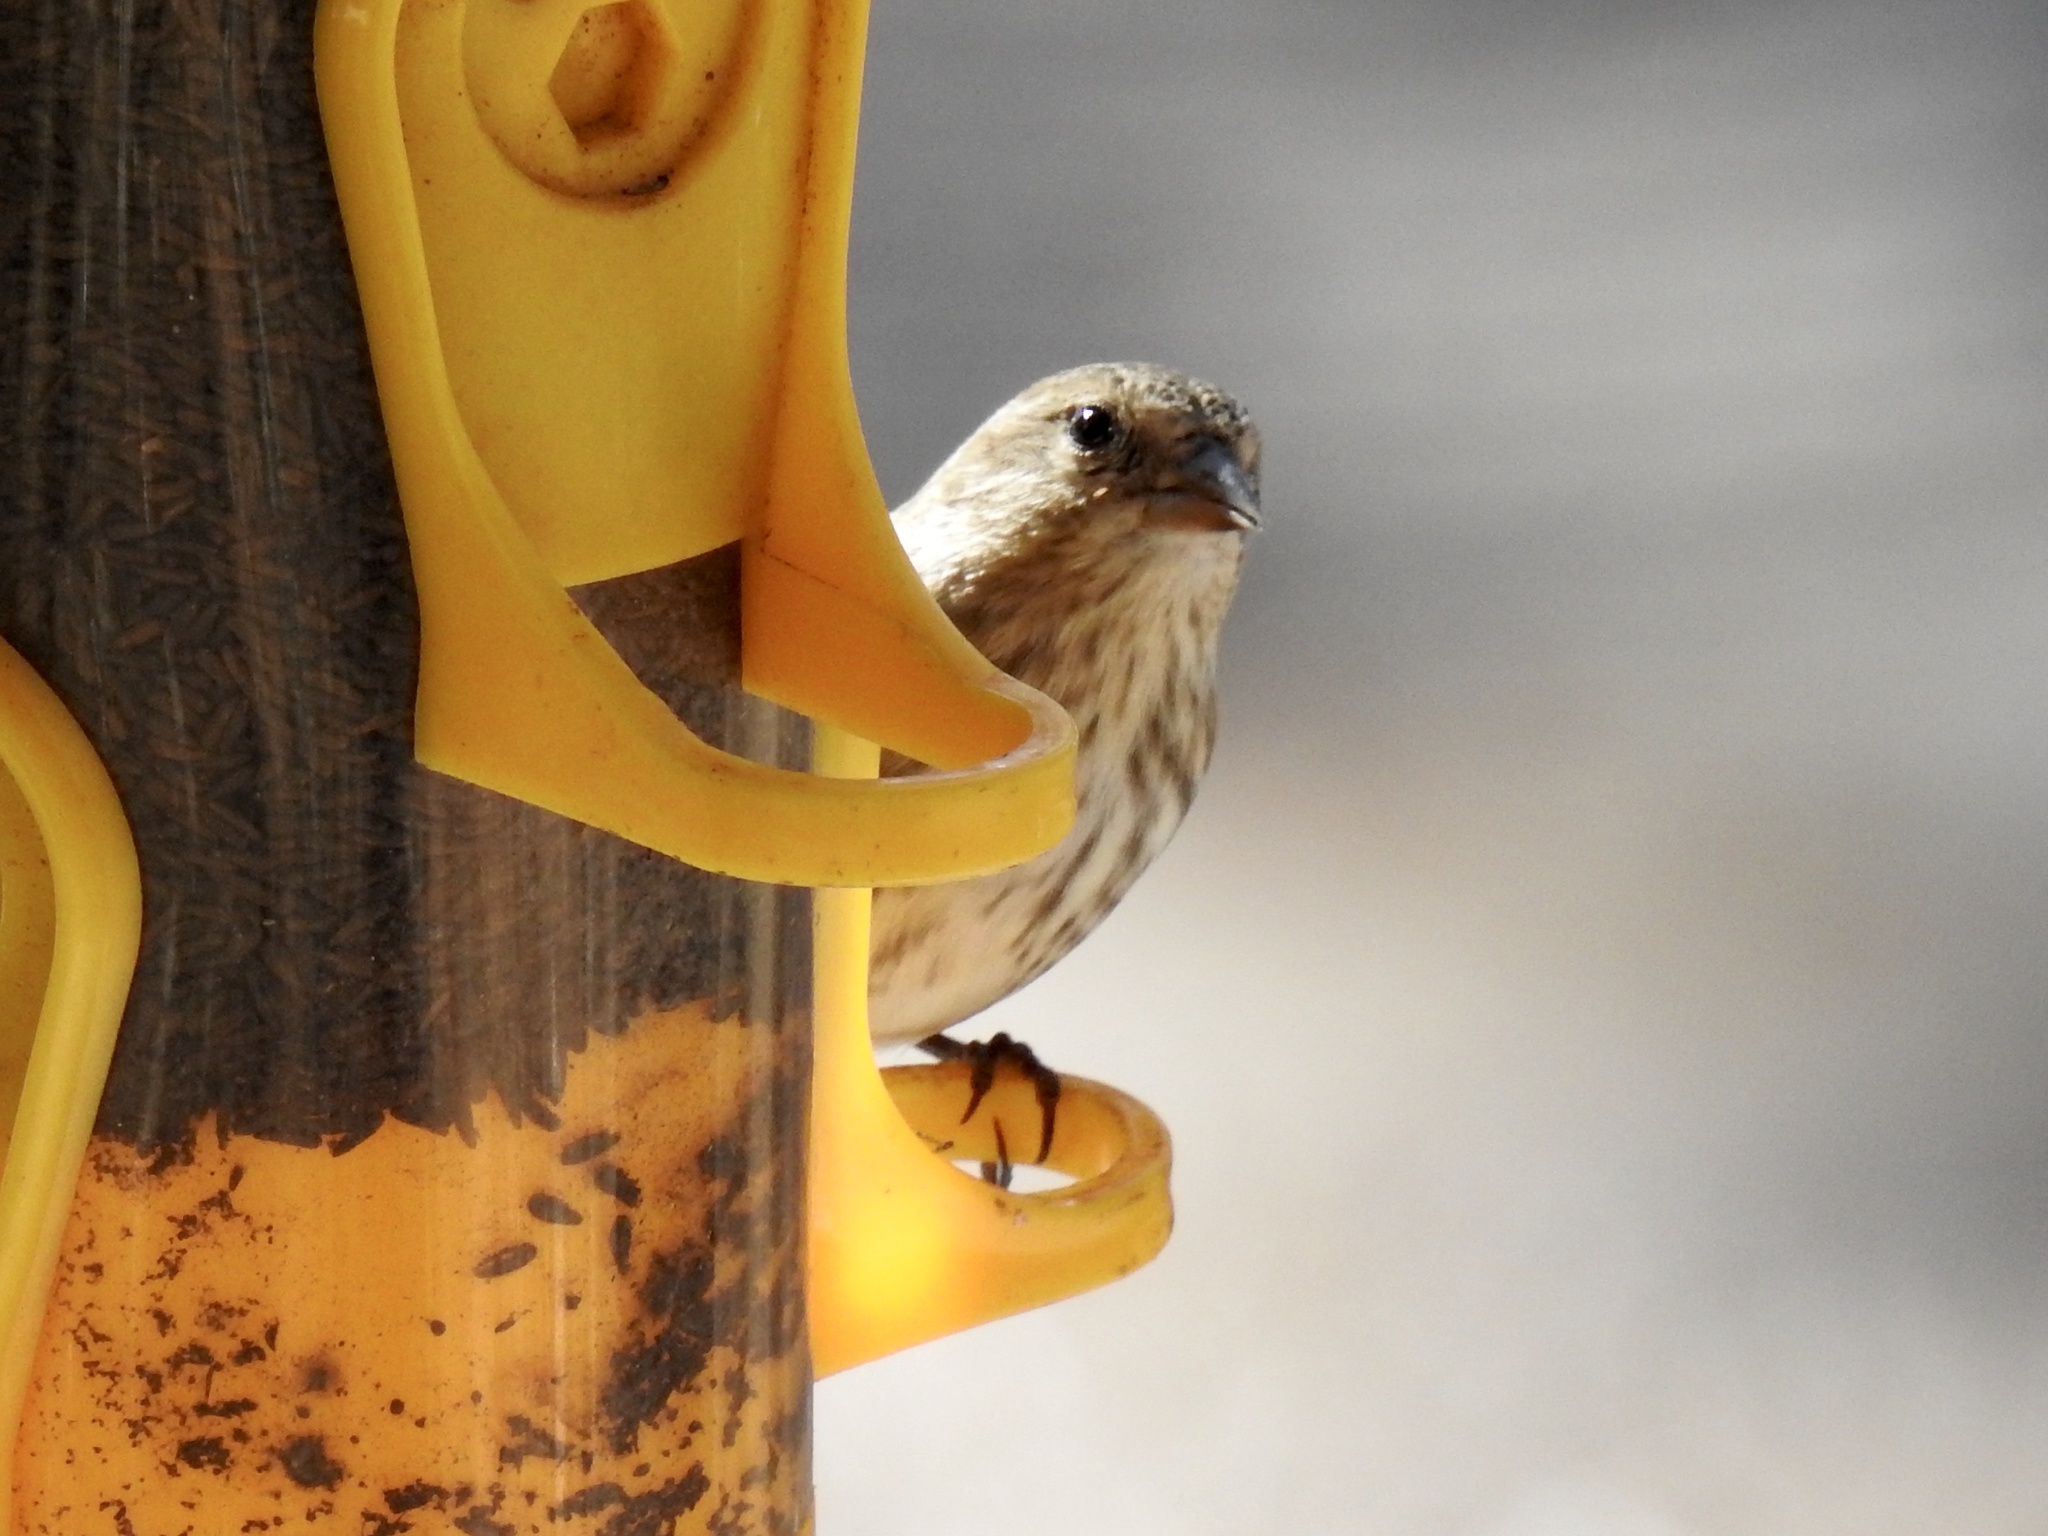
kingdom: Animalia
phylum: Chordata
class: Aves
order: Passeriformes
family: Fringillidae
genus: Spinus
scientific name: Spinus pinus
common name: Pine siskin
